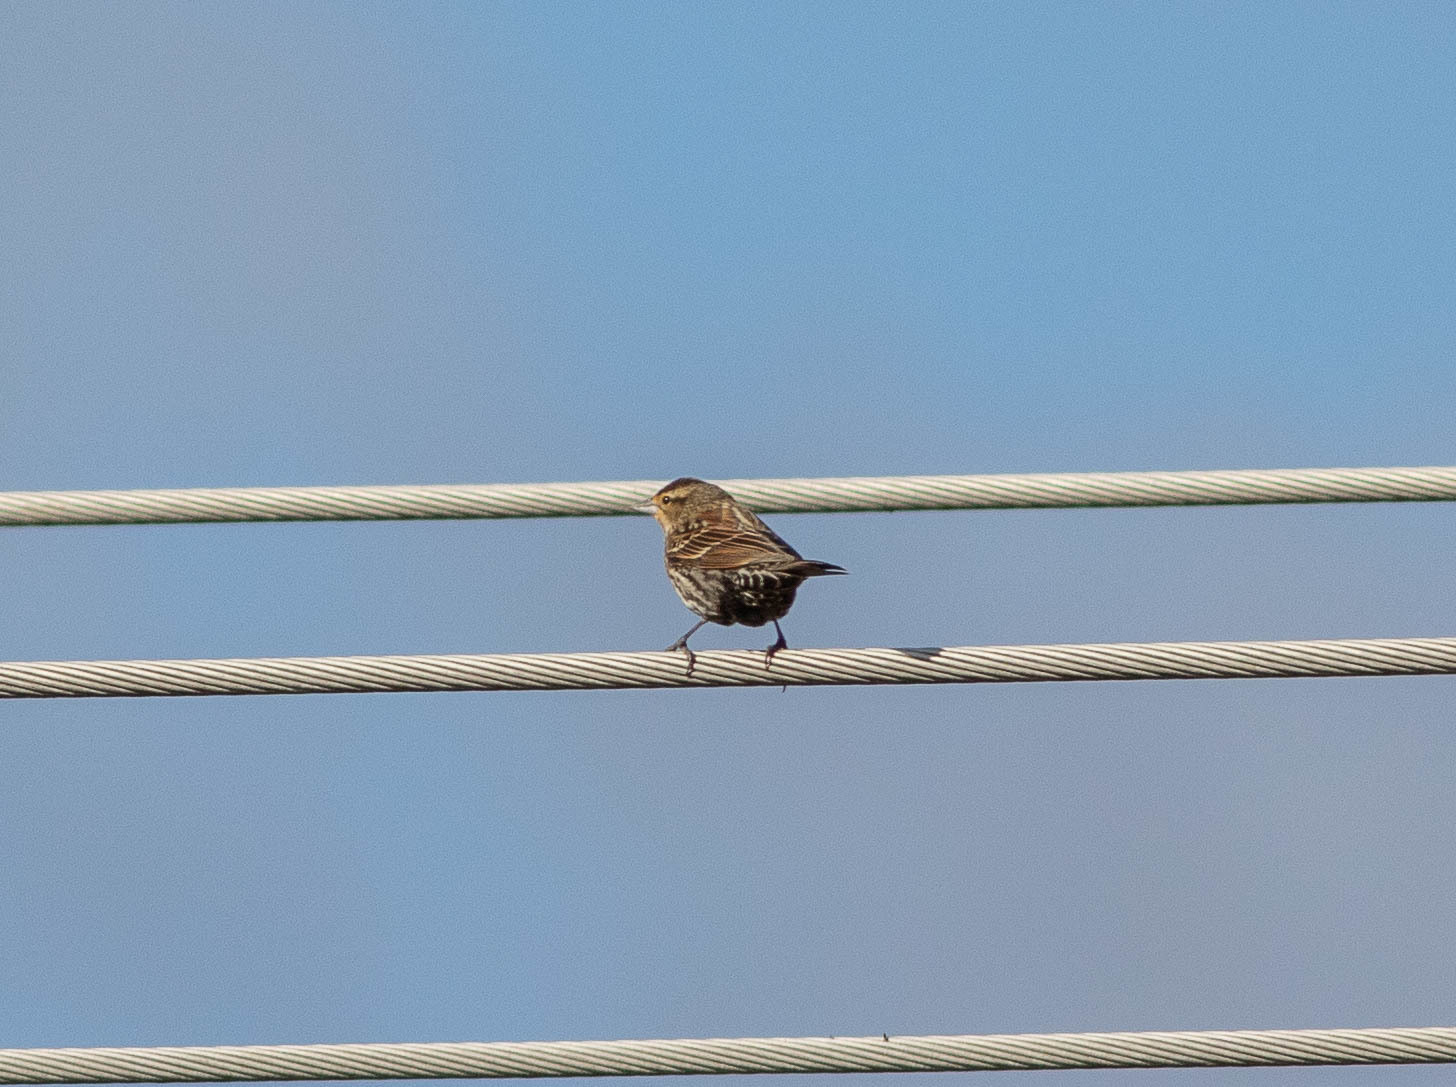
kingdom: Animalia
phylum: Chordata
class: Aves
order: Passeriformes
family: Icteridae
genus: Agelaius
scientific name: Agelaius phoeniceus
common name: Red-winged blackbird
